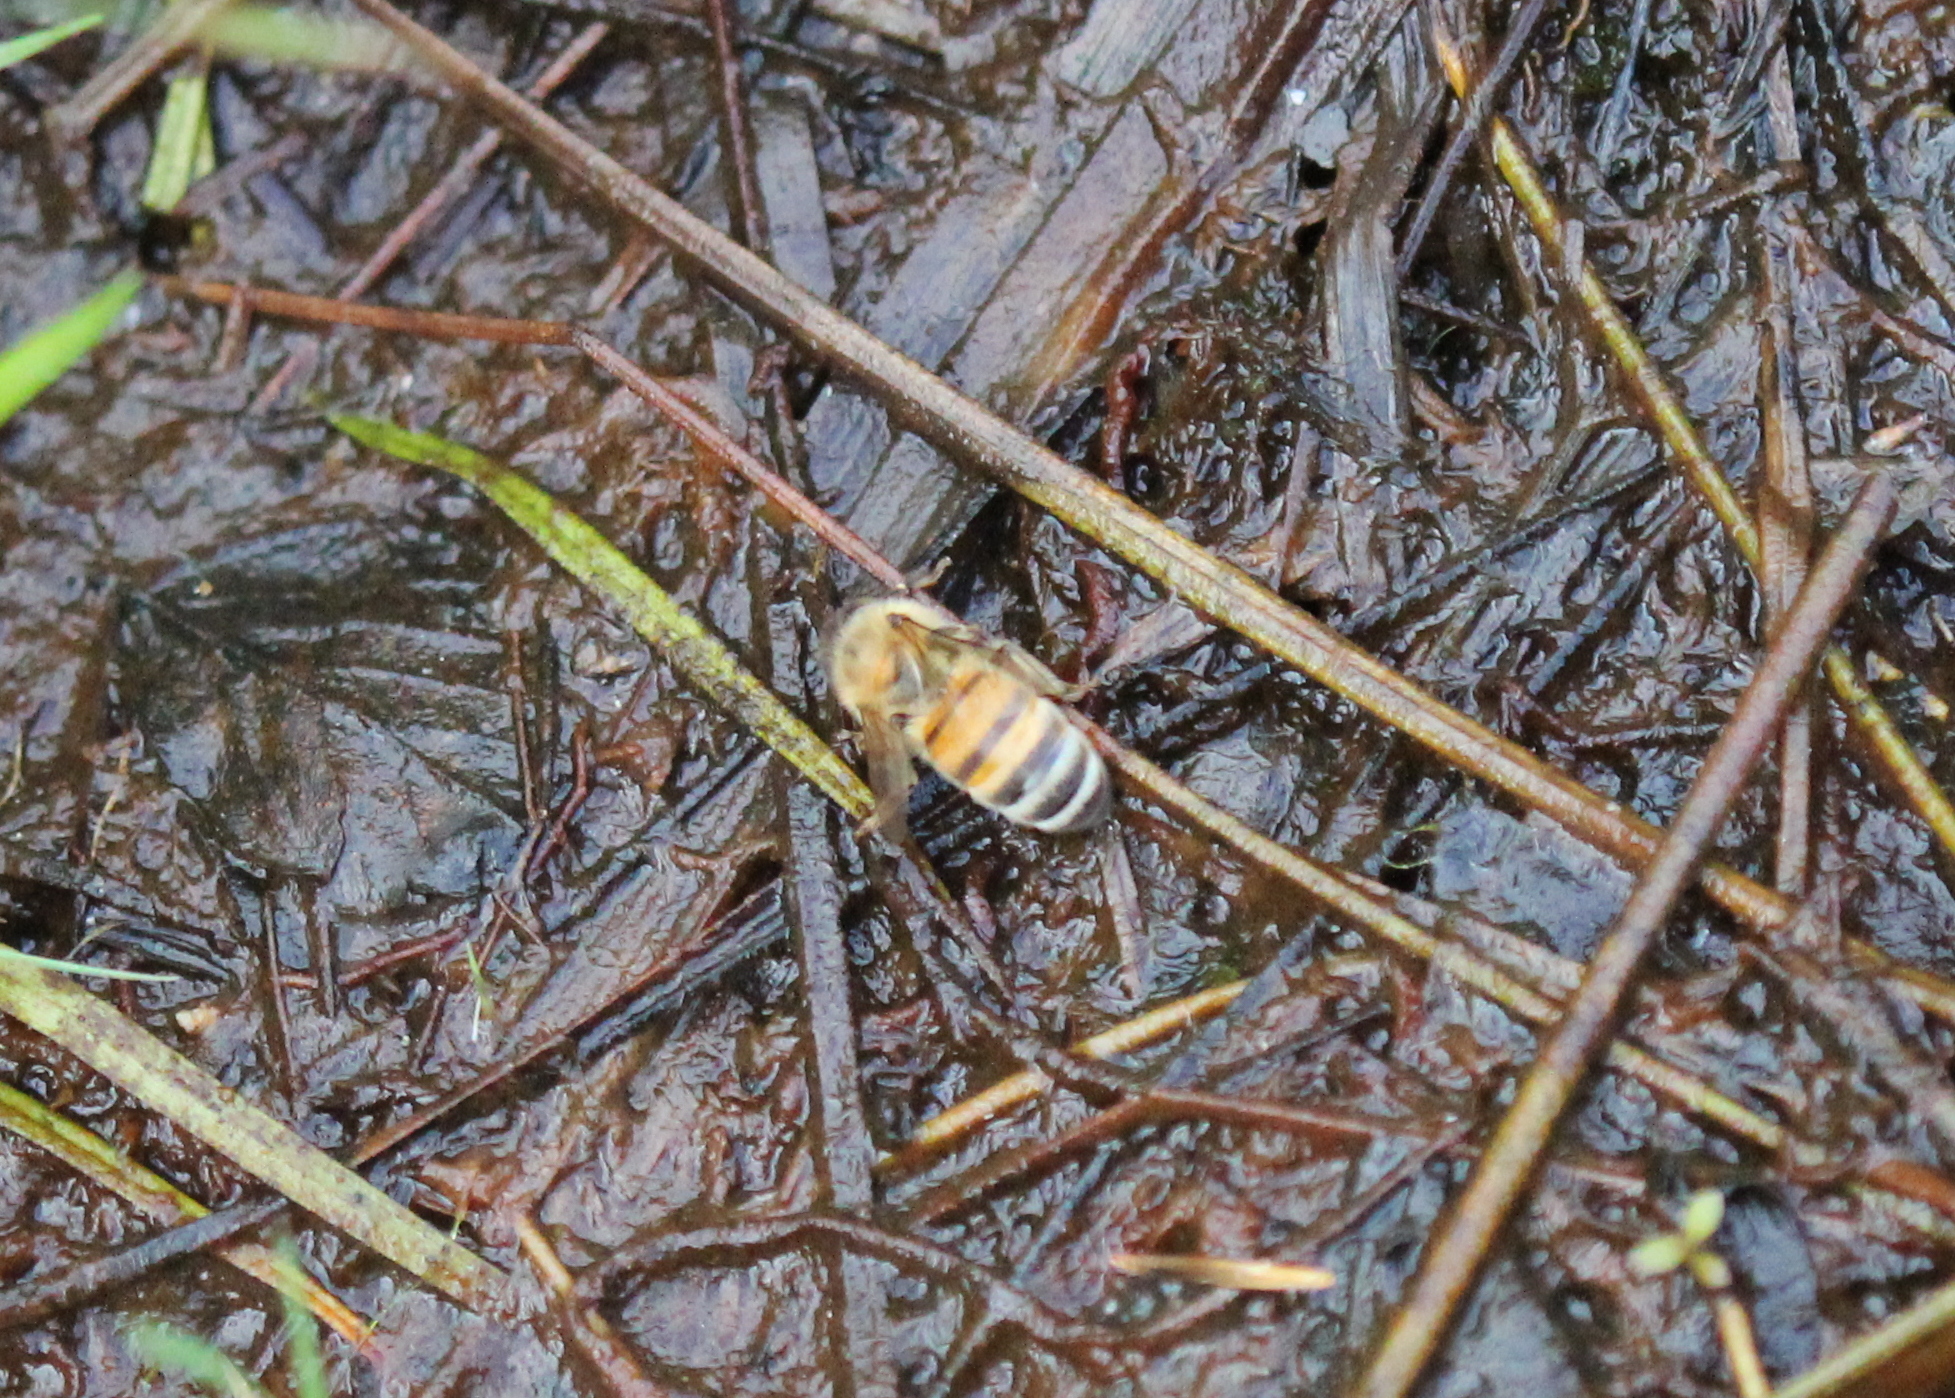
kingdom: Animalia
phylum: Arthropoda
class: Insecta
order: Hymenoptera
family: Apidae
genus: Apis
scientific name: Apis mellifera
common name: Honey bee
